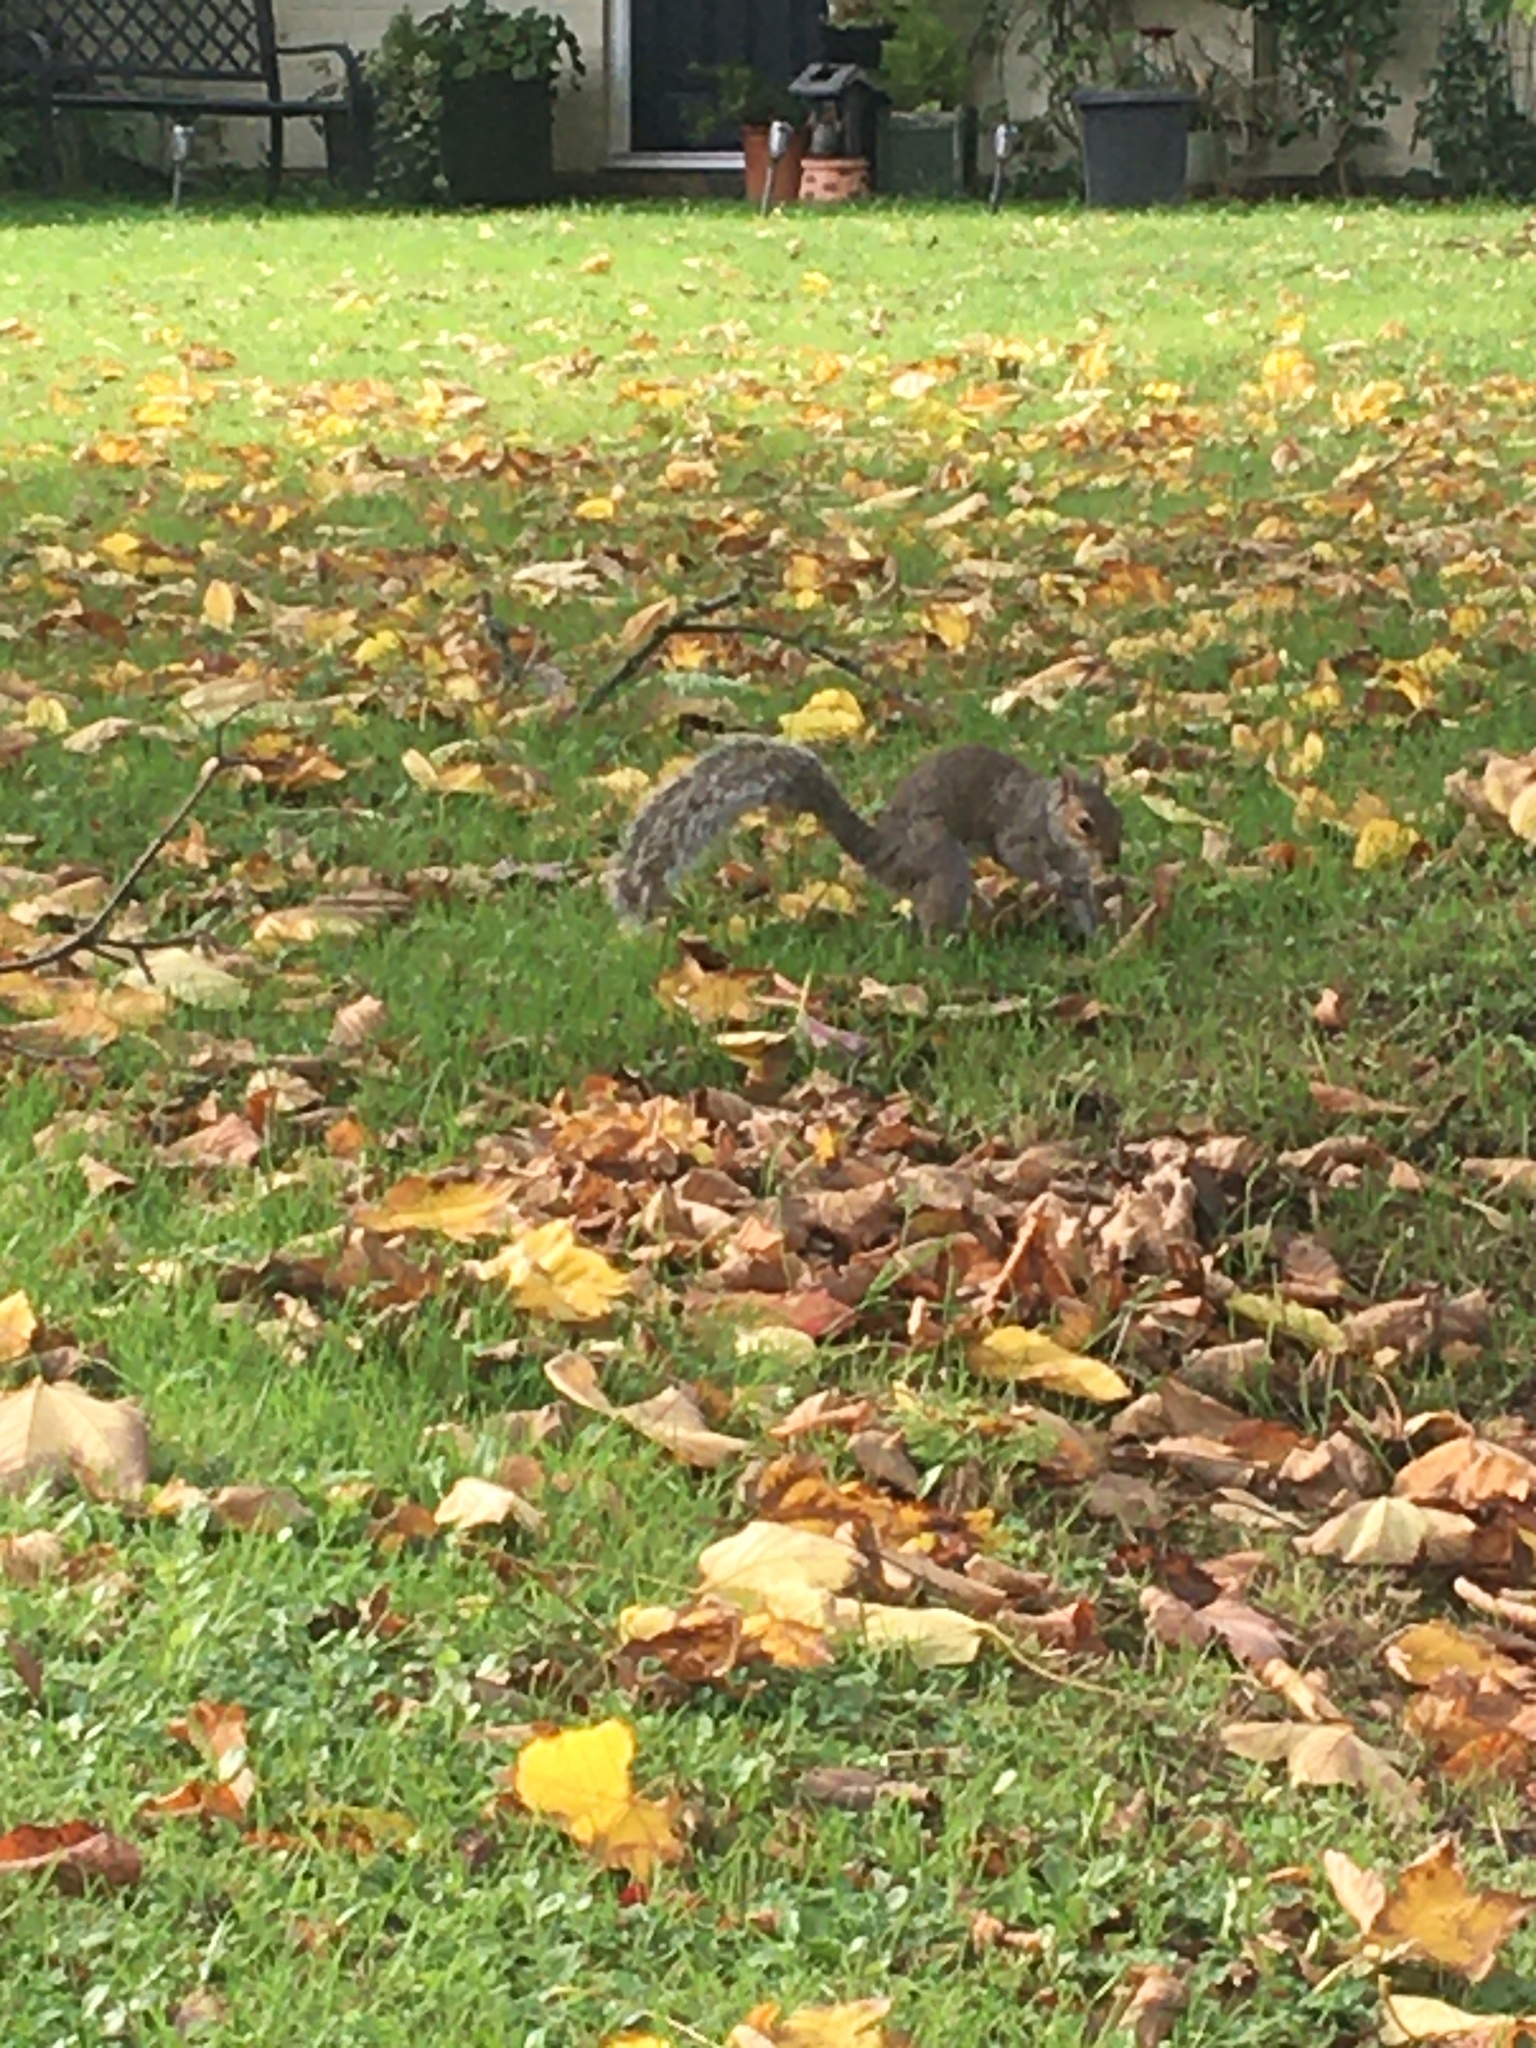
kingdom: Animalia
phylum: Chordata
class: Mammalia
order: Rodentia
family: Sciuridae
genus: Sciurus
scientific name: Sciurus carolinensis
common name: Eastern gray squirrel
